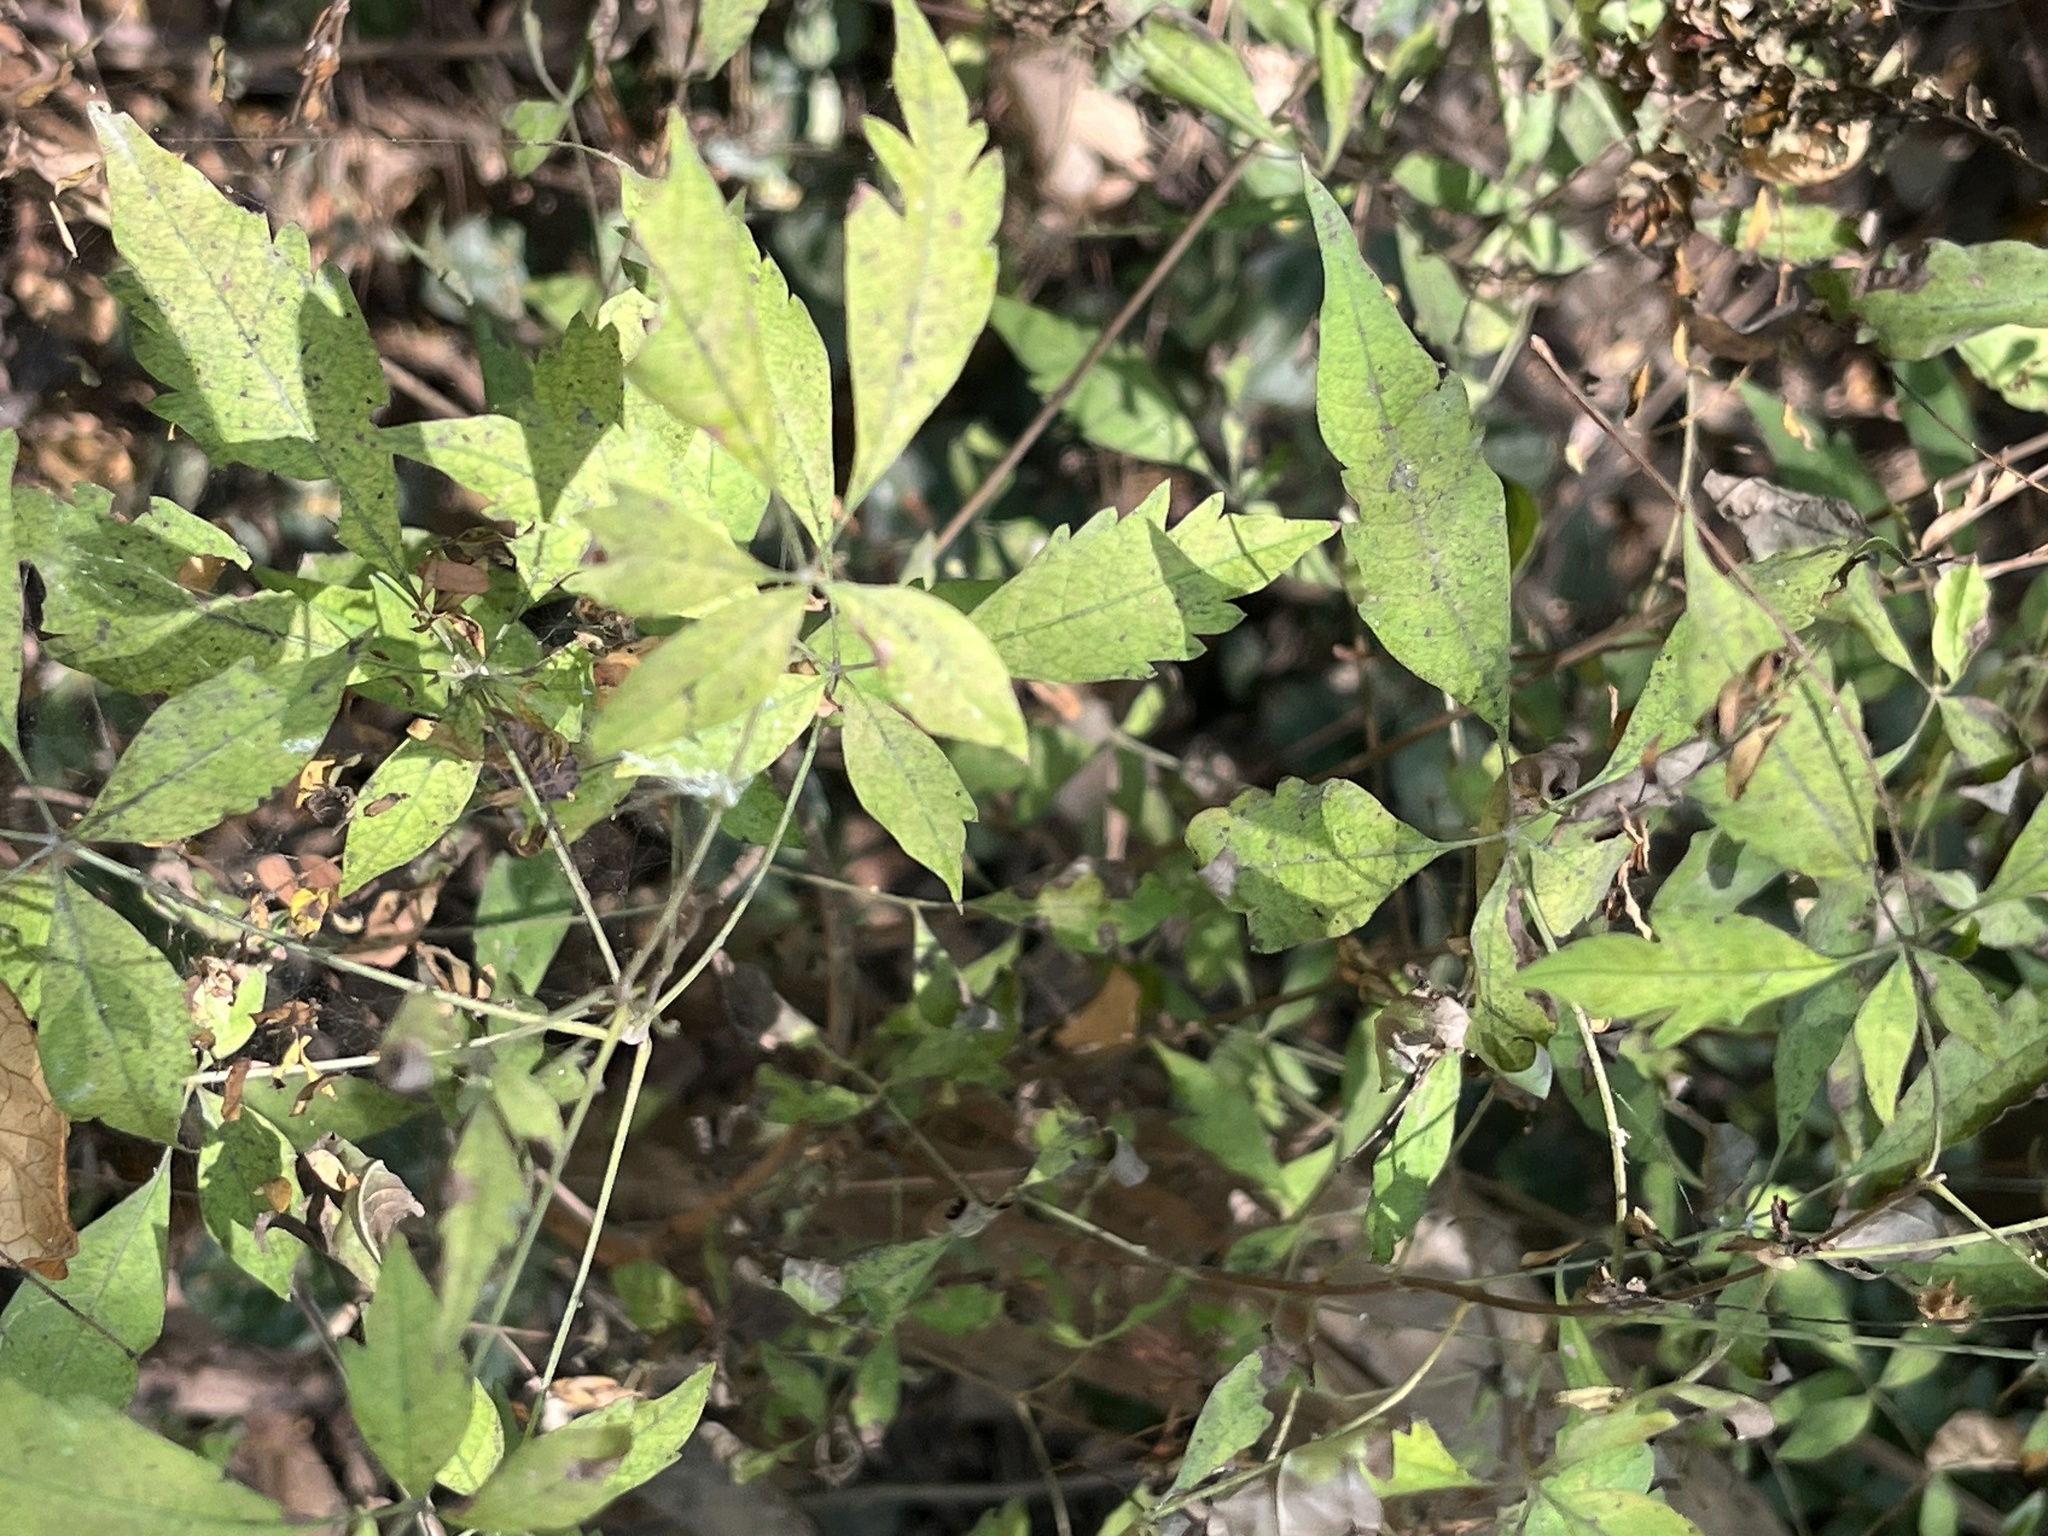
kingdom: Plantae
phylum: Tracheophyta
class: Magnoliopsida
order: Lamiales
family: Lamiaceae
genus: Vitex
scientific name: Vitex negundo
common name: Chinese chastetree
